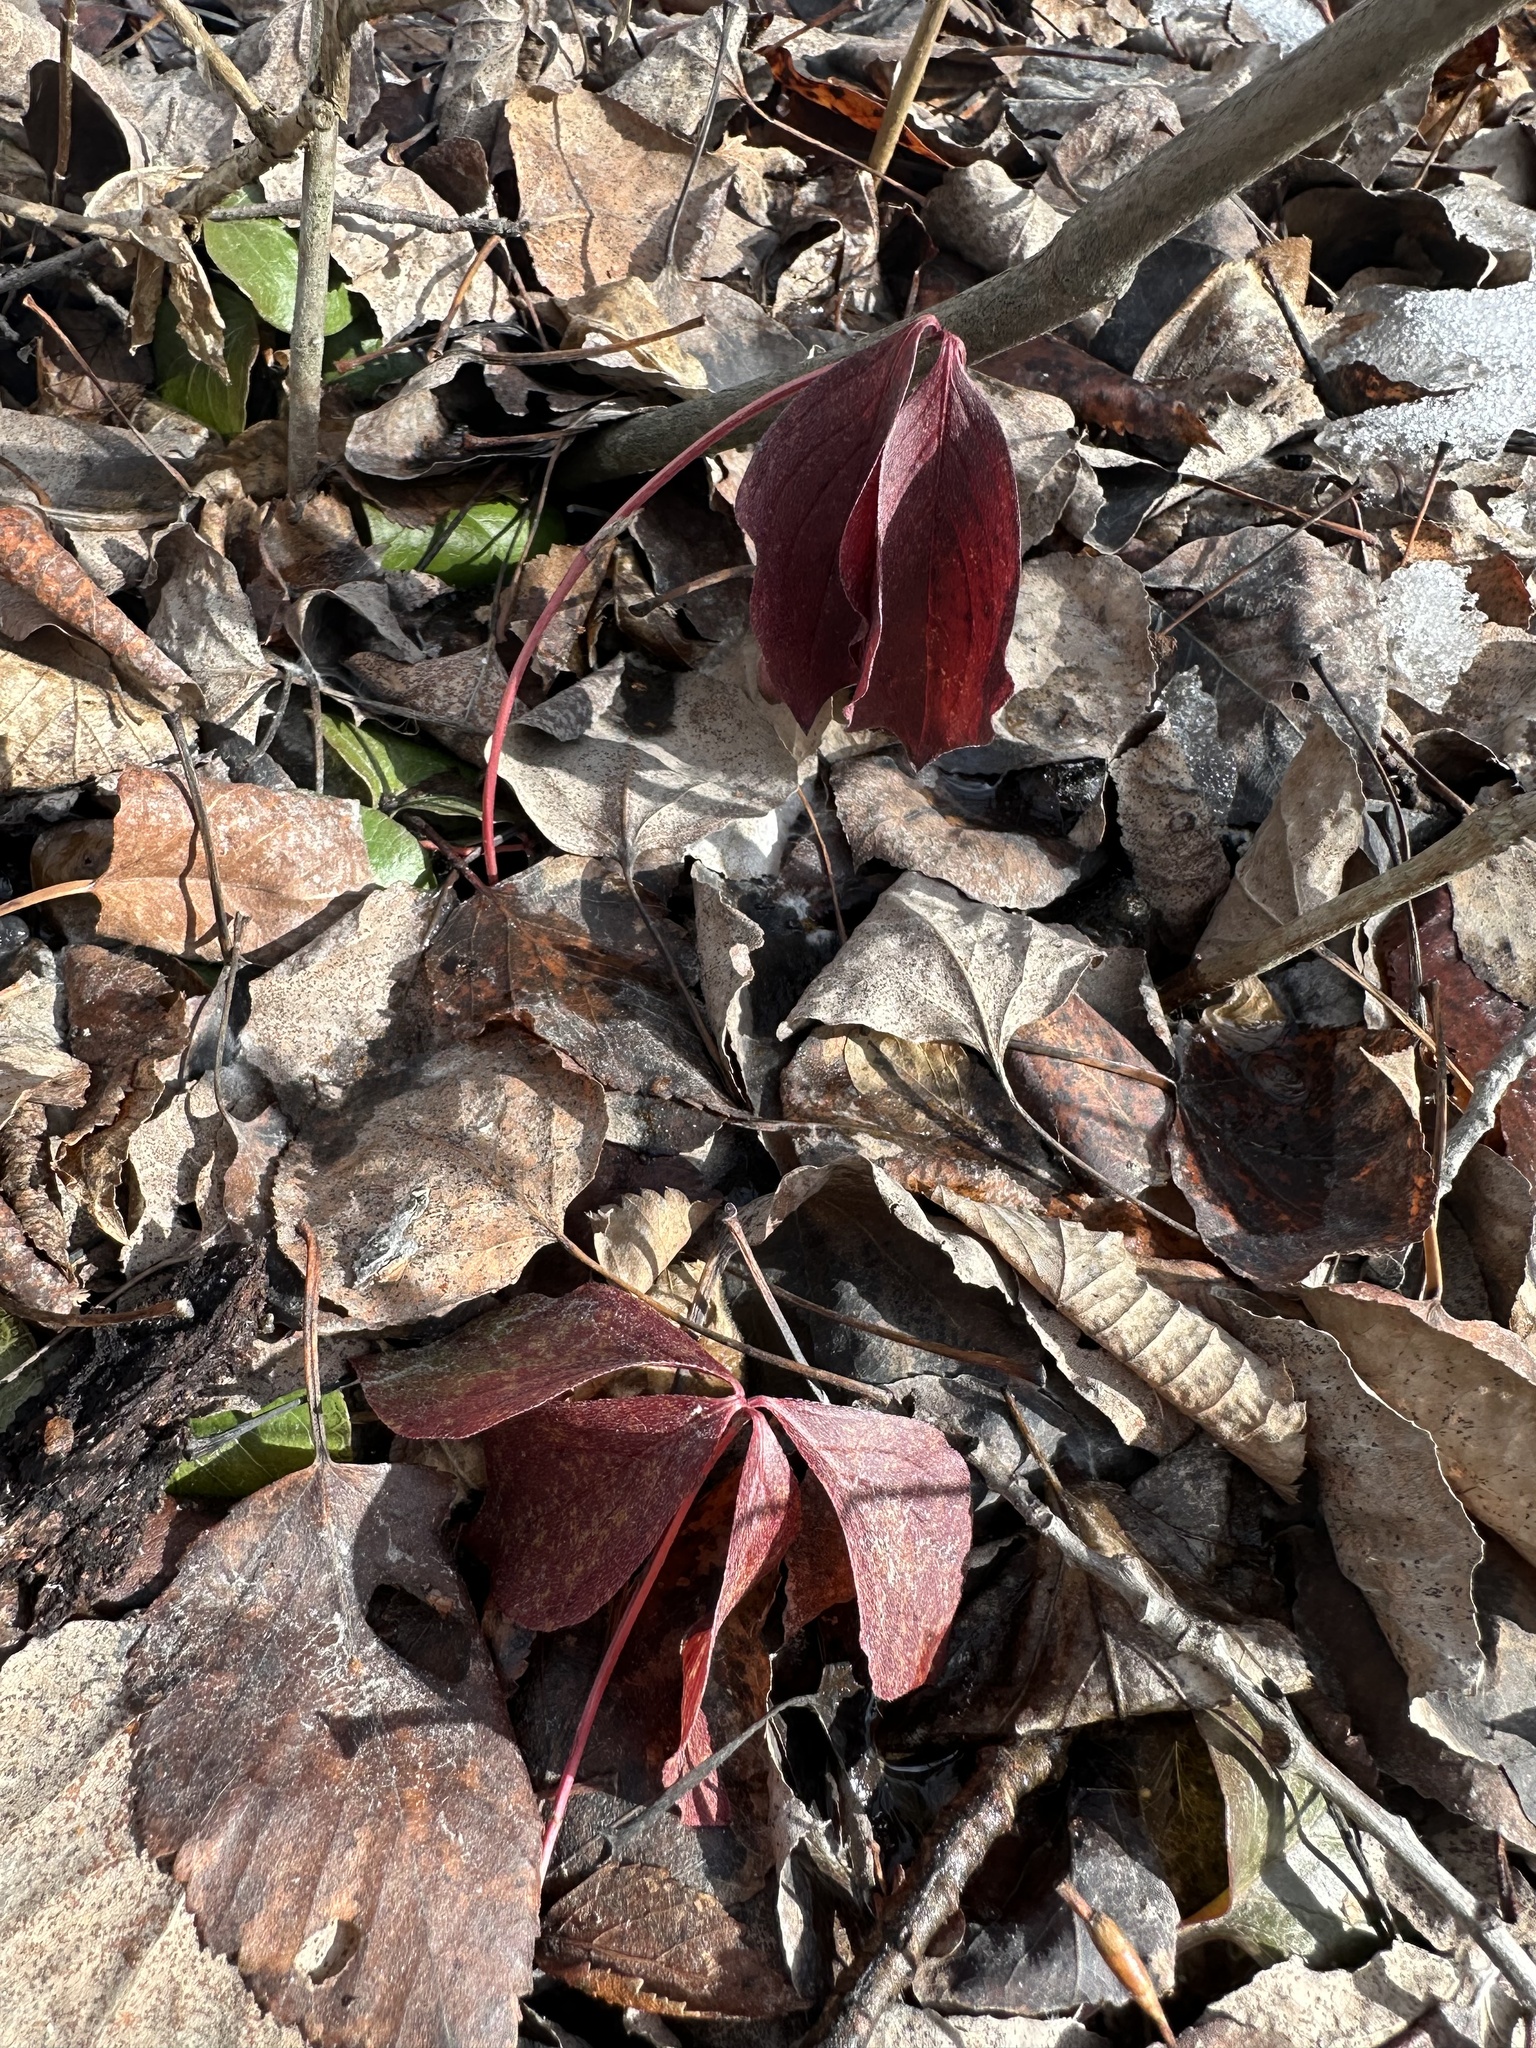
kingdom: Plantae
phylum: Tracheophyta
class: Magnoliopsida
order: Cornales
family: Cornaceae
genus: Cornus
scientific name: Cornus canadensis
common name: Creeping dogwood
